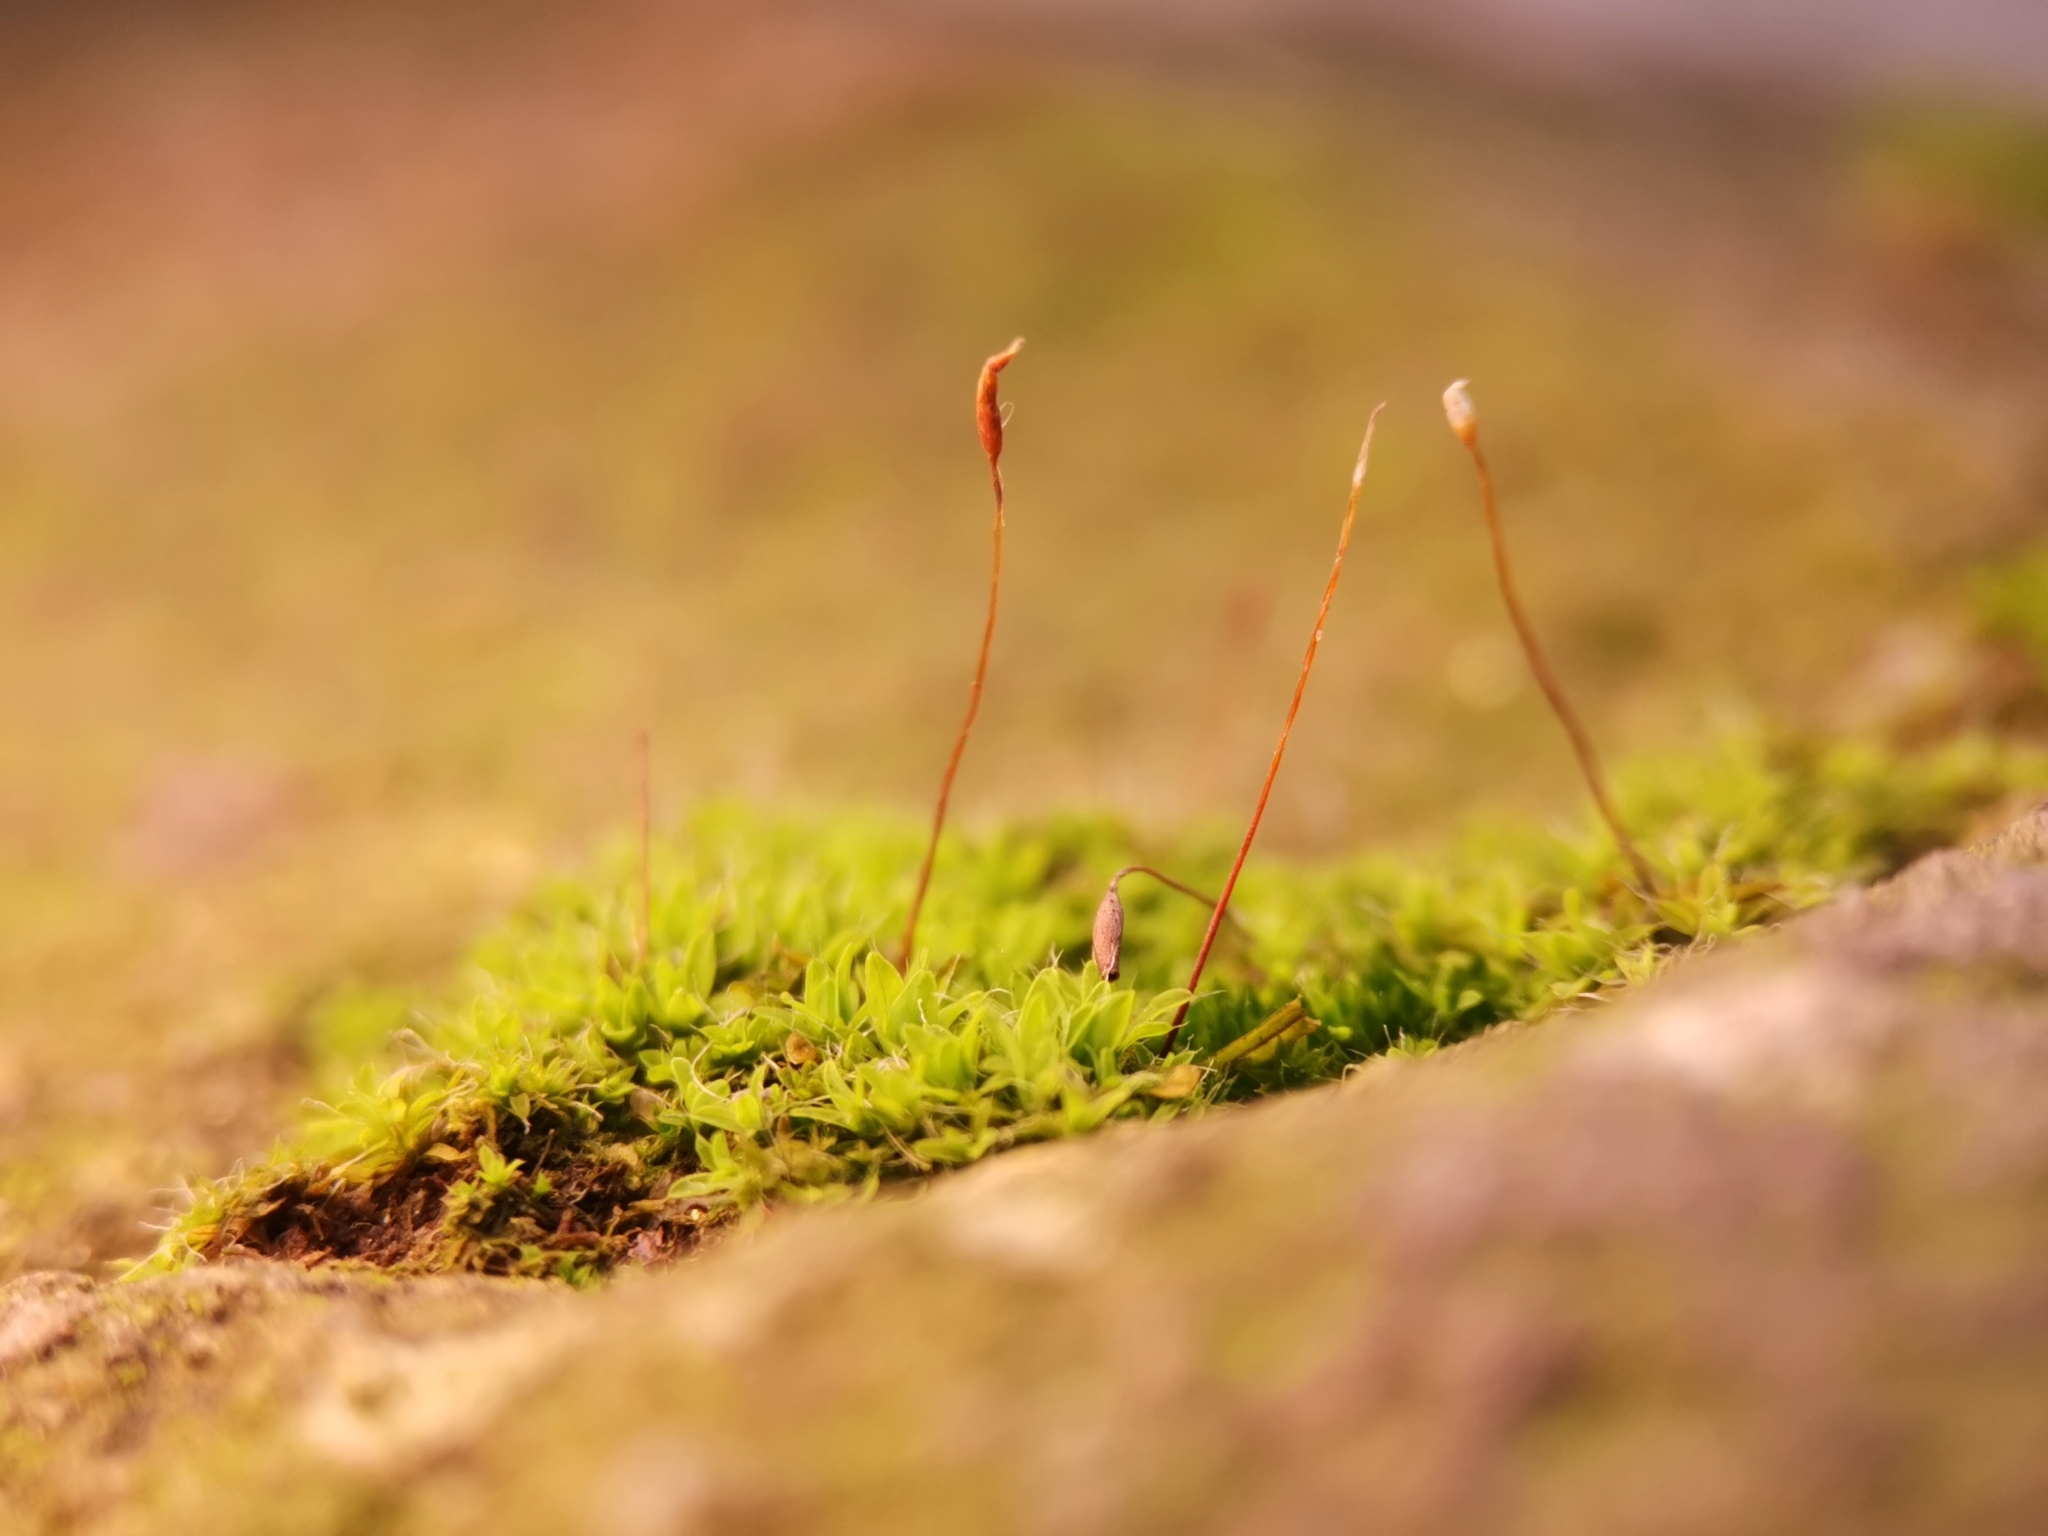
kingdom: Plantae
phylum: Bryophyta
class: Bryopsida
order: Pottiales
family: Pottiaceae
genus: Tortula
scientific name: Tortula muralis
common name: Wall screw-moss
